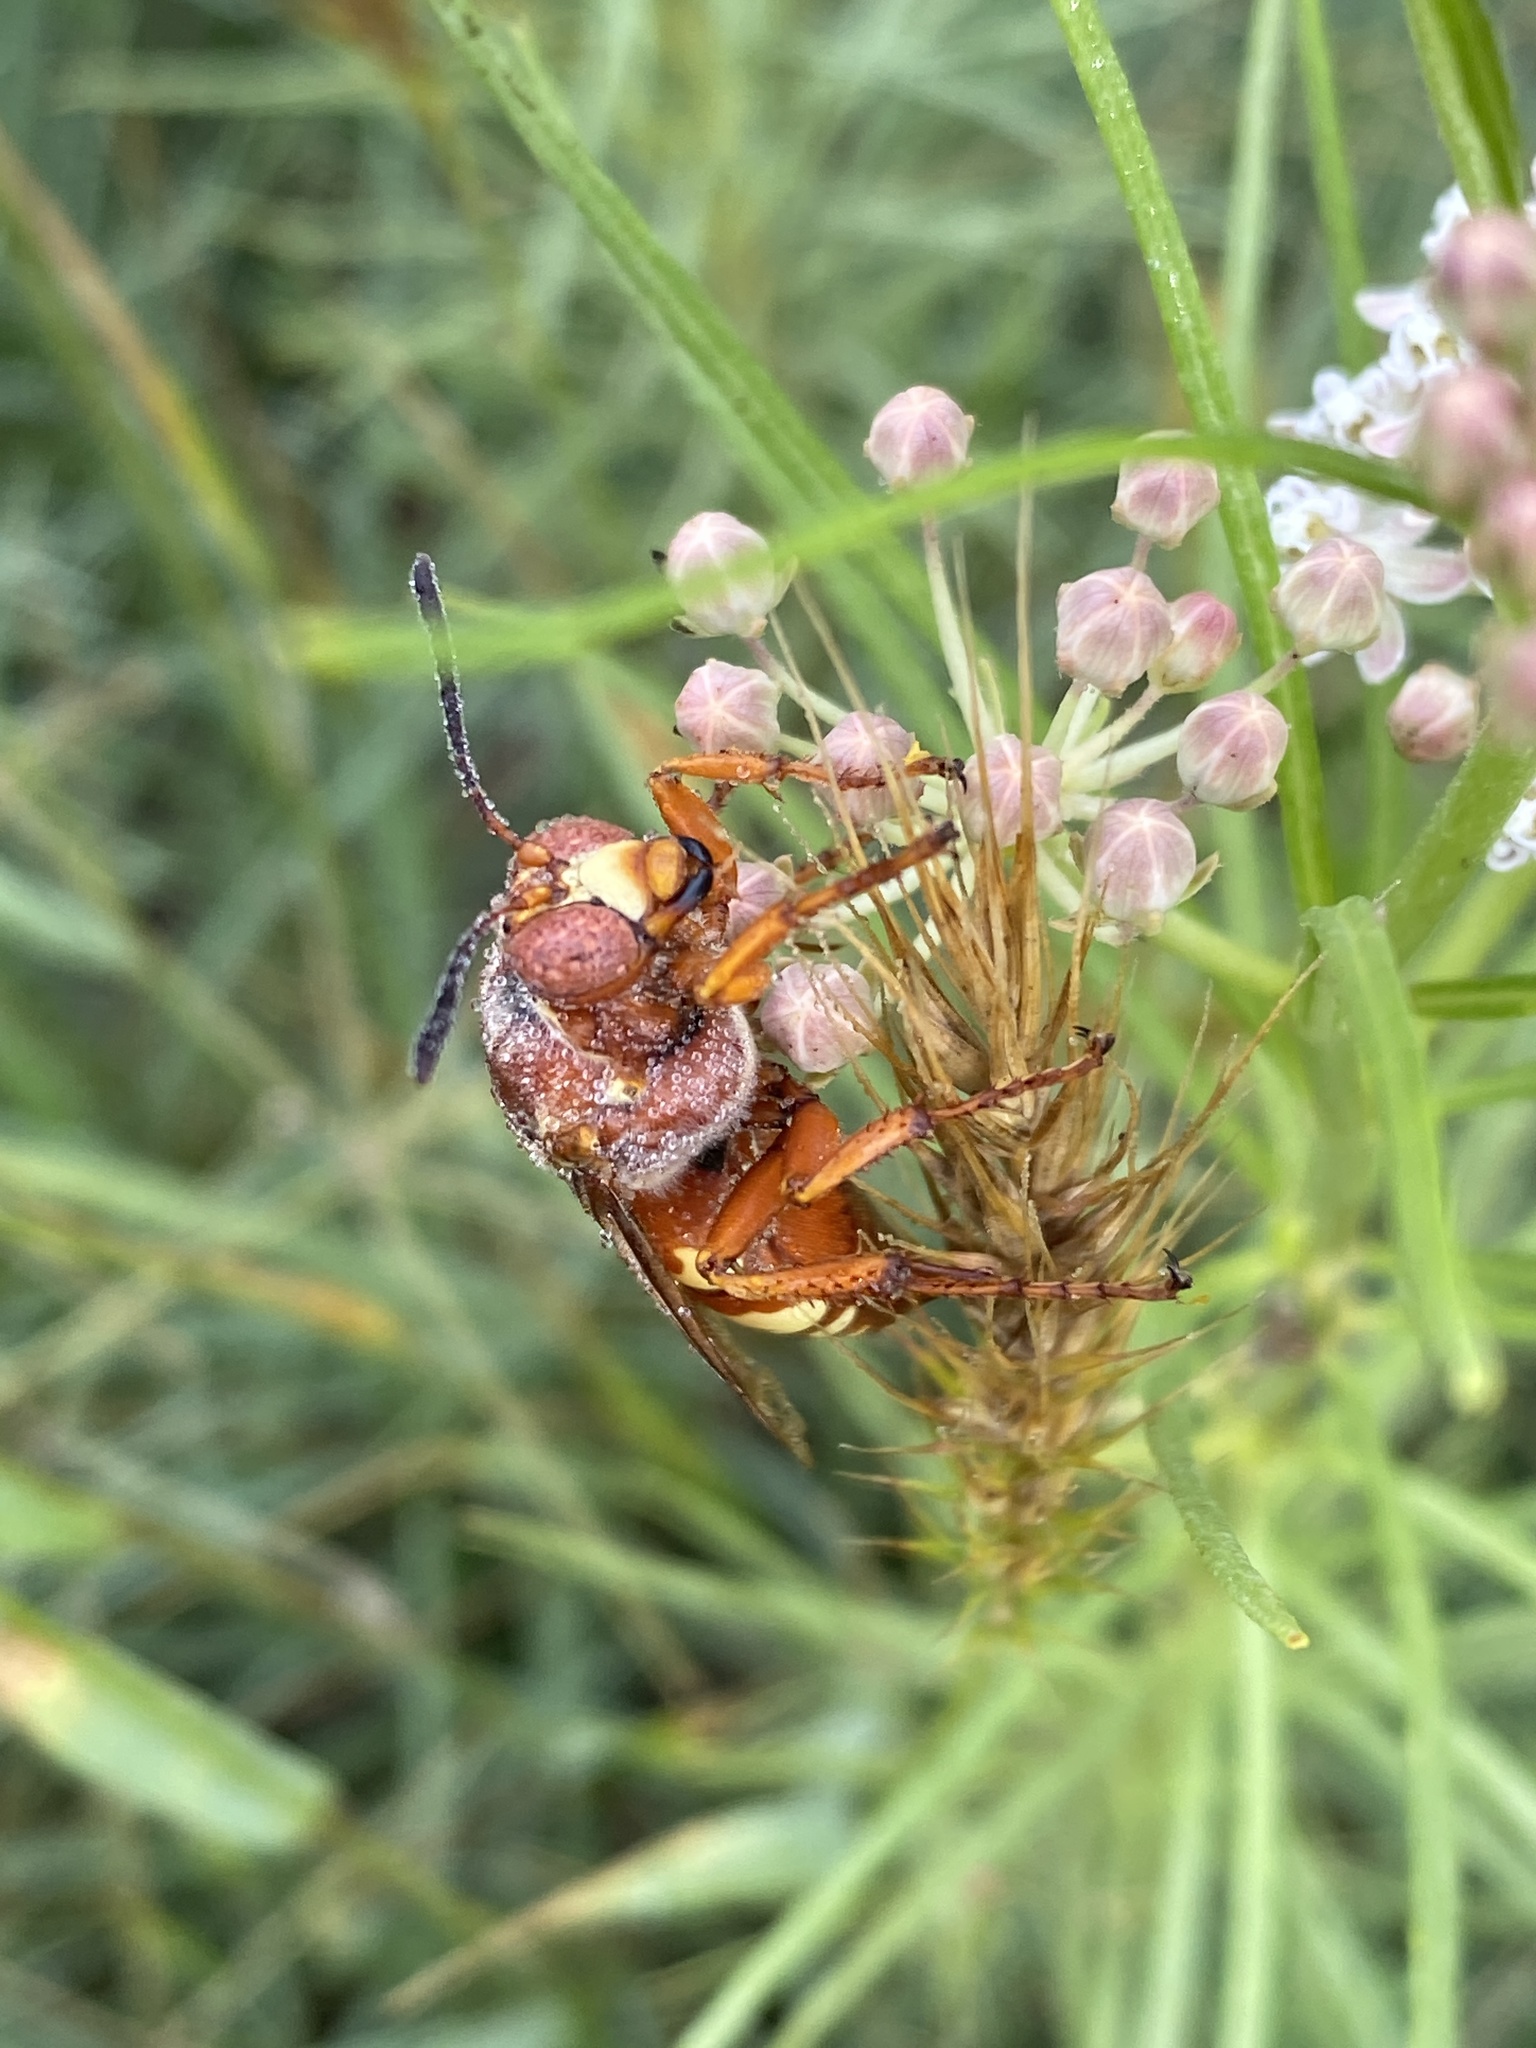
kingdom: Animalia
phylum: Arthropoda
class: Insecta
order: Hymenoptera
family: Crabronidae
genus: Sphecius
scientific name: Sphecius
